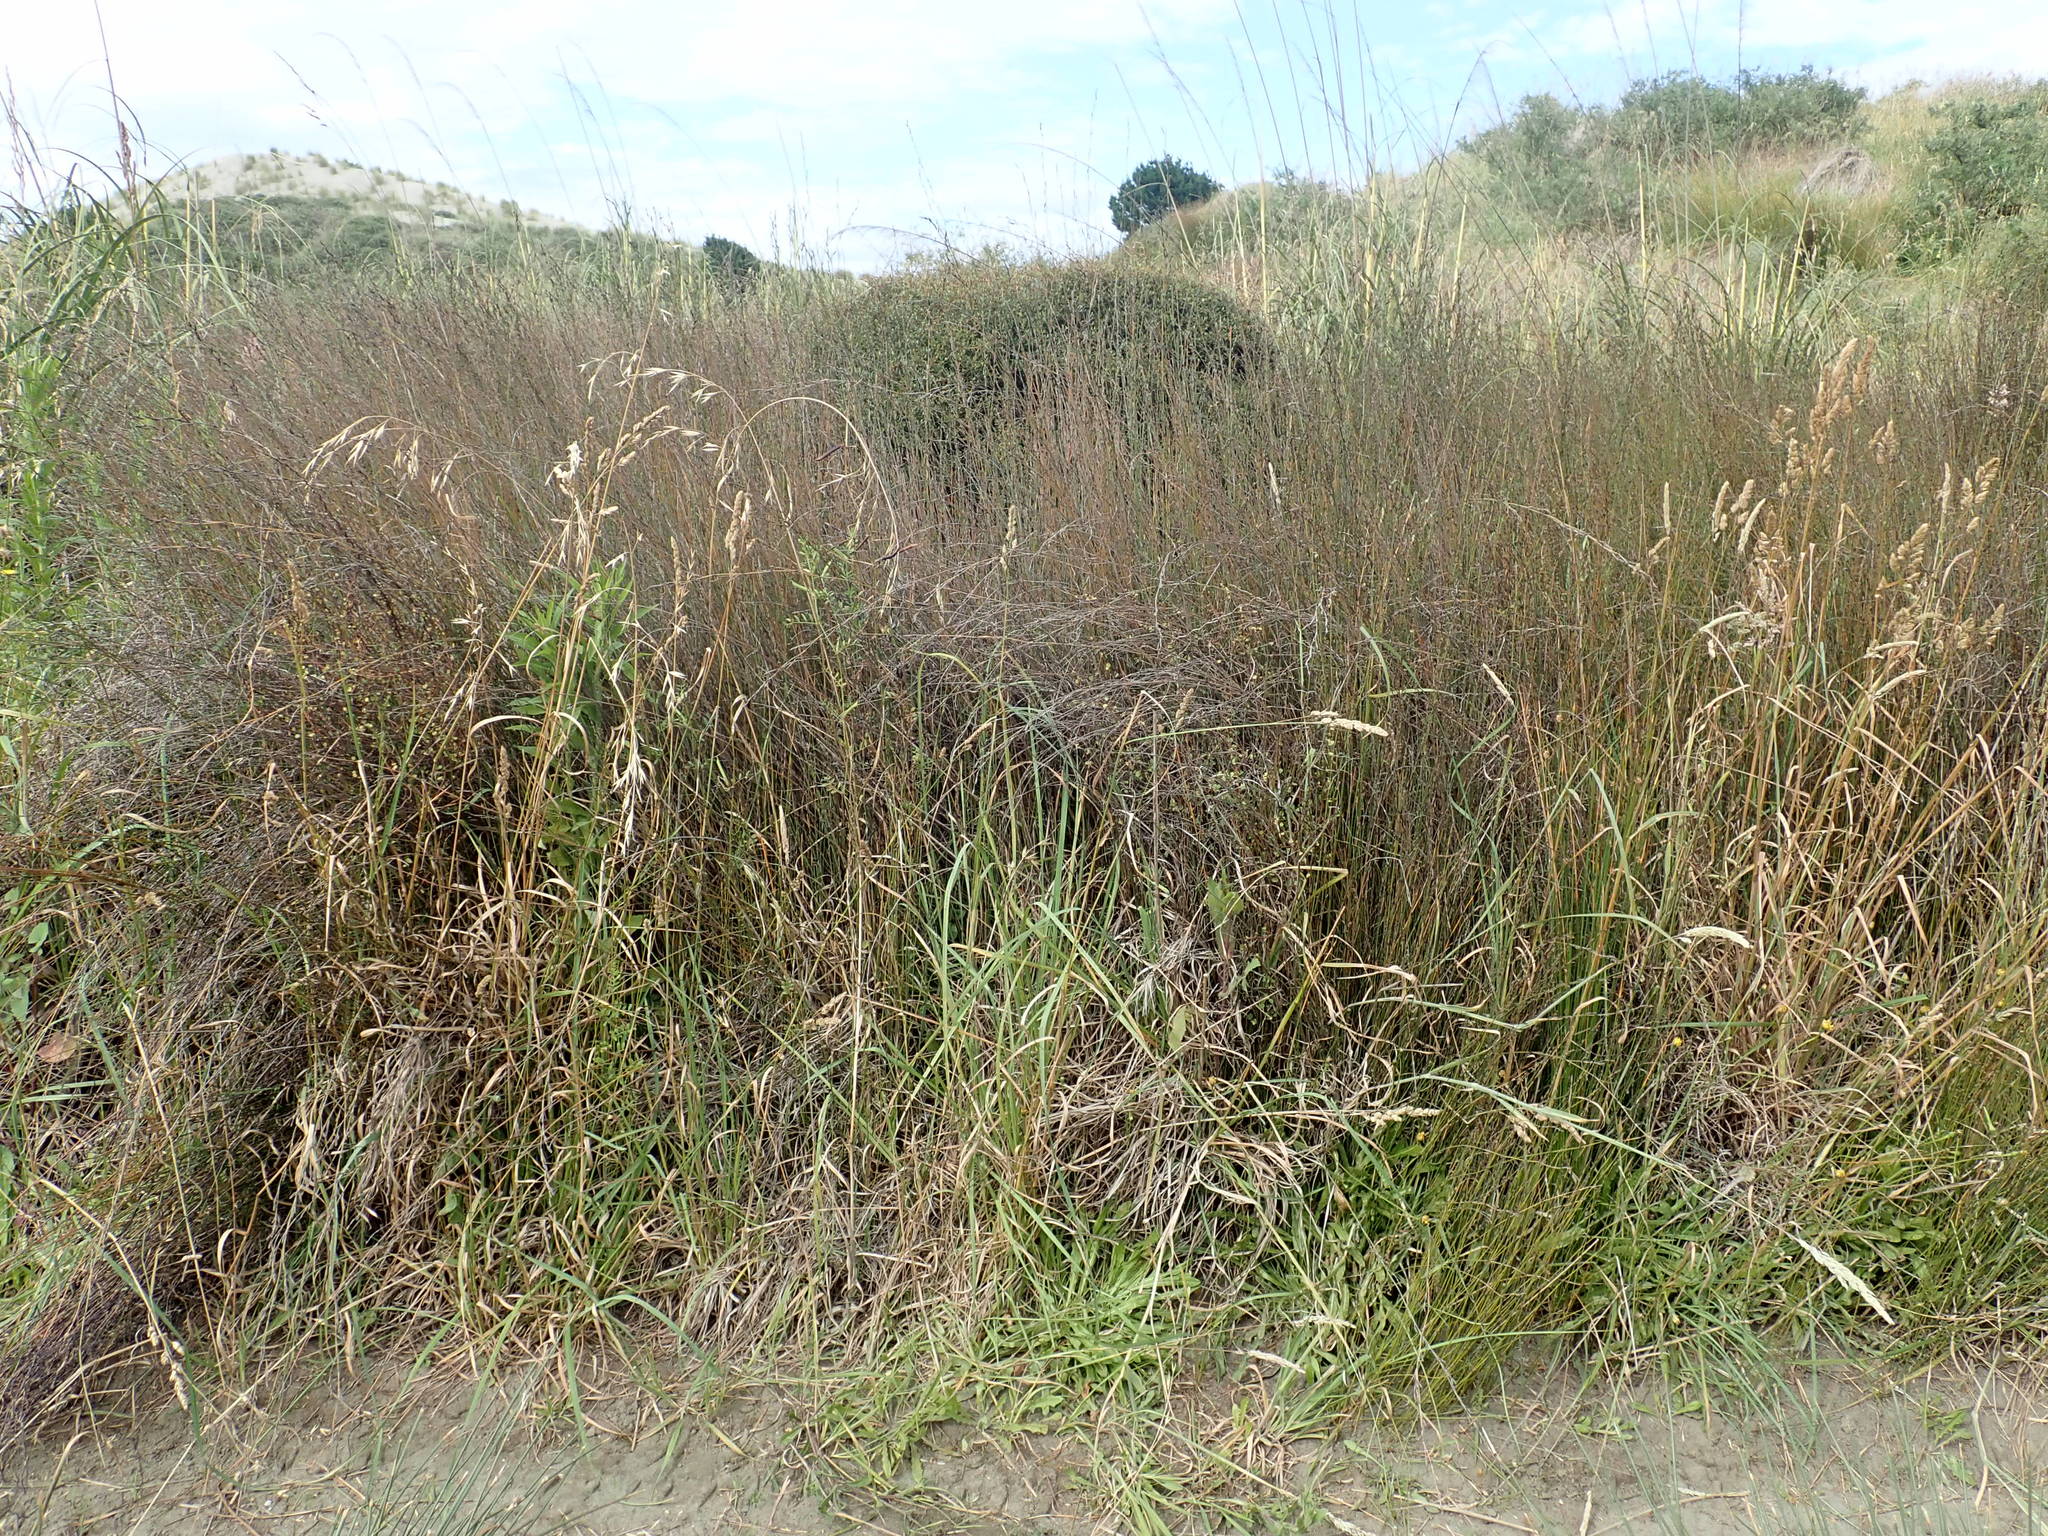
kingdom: Plantae
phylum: Tracheophyta
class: Magnoliopsida
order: Caryophyllales
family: Polygonaceae
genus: Muehlenbeckia
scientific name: Muehlenbeckia complexa
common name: Wireplant
